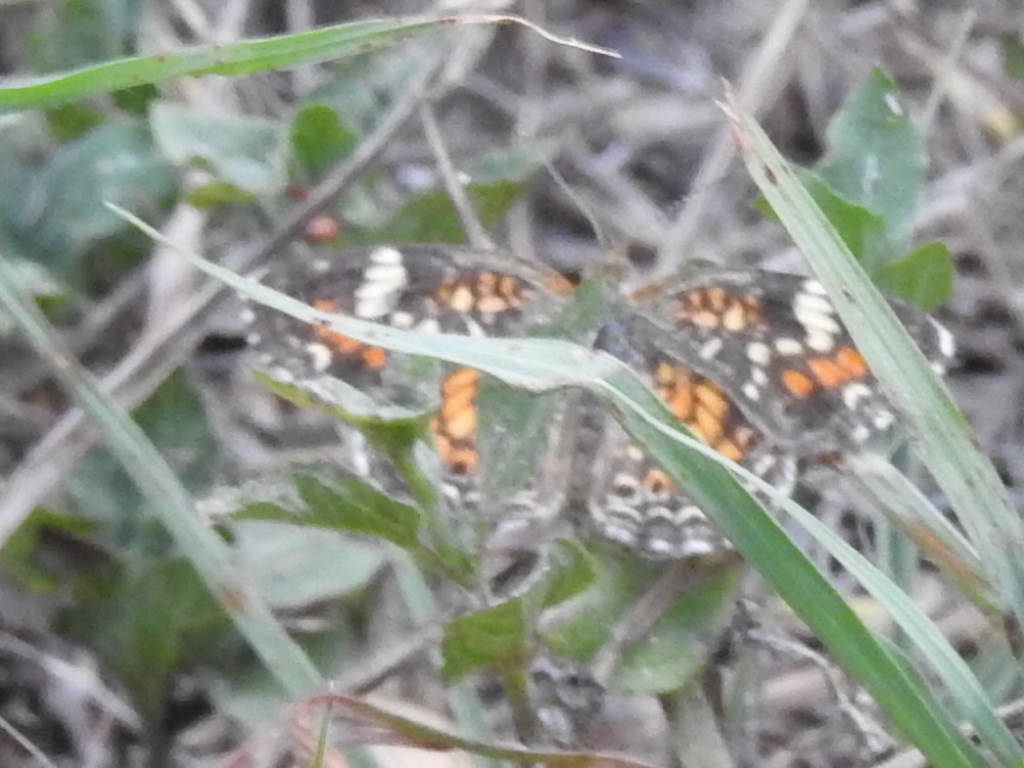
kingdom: Animalia
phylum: Arthropoda
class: Insecta
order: Lepidoptera
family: Nymphalidae
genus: Phyciodes
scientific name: Phyciodes phaon
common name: Phaon crescent
